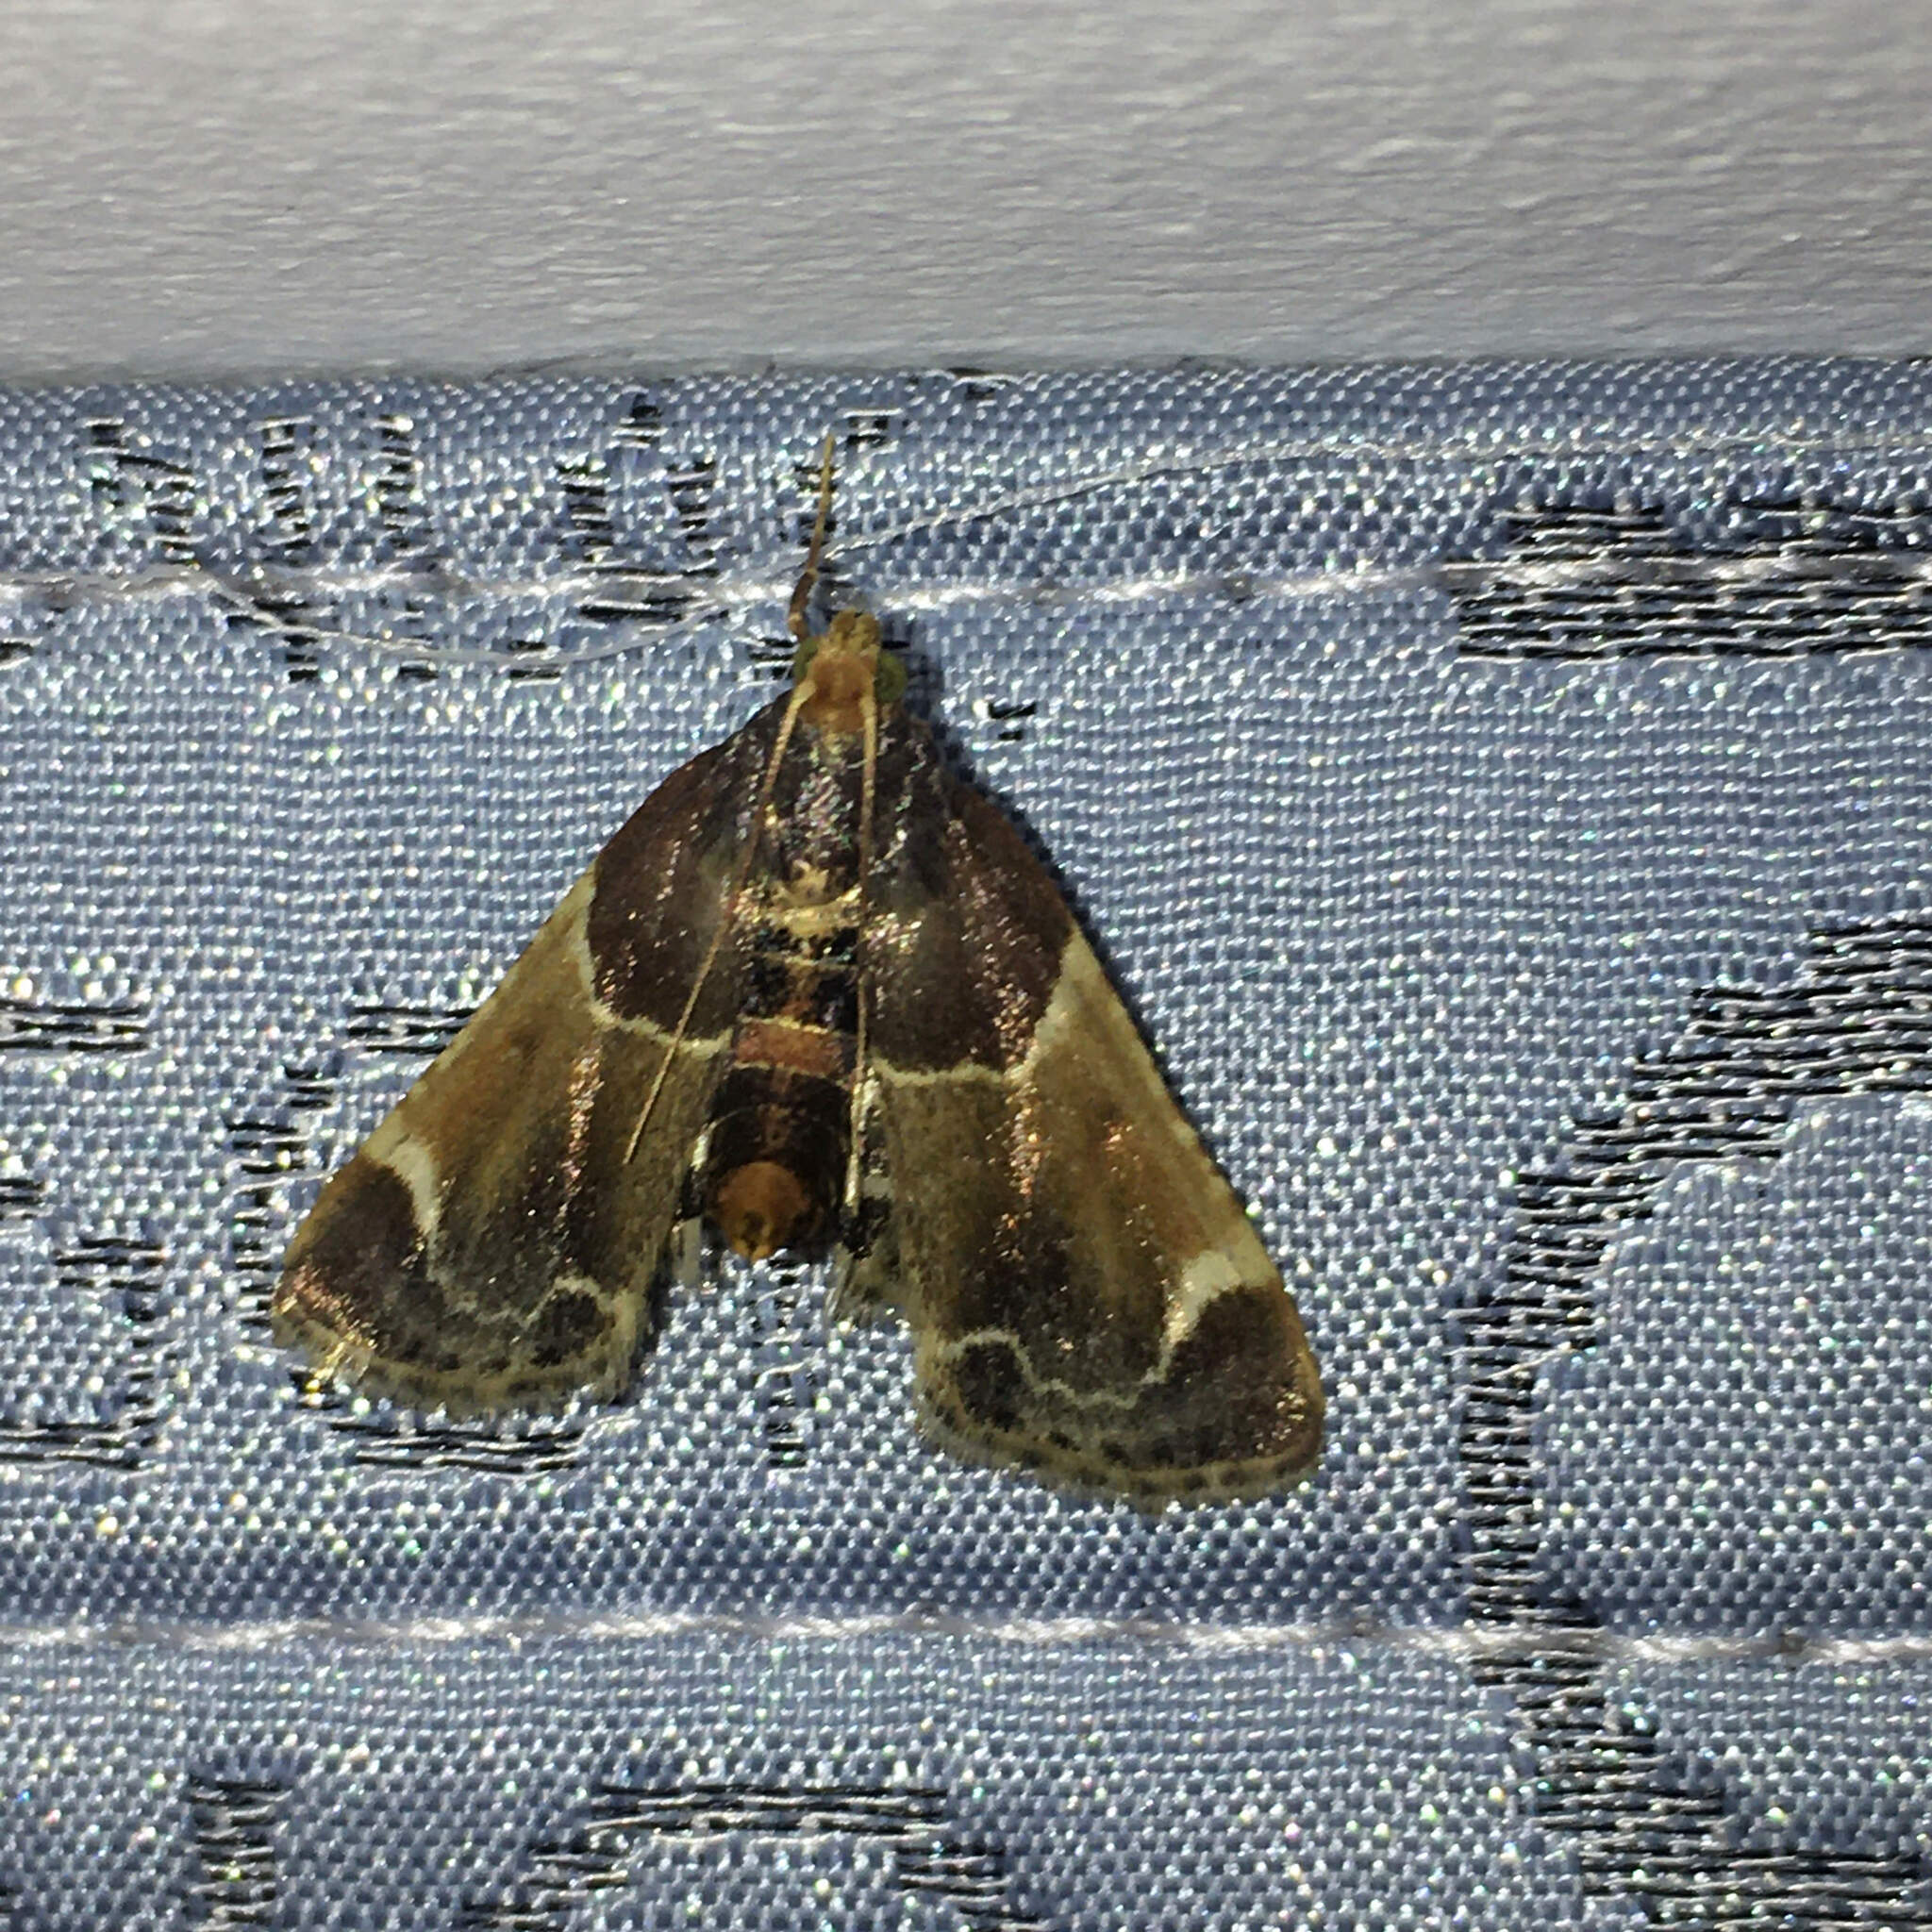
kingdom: Animalia
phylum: Arthropoda
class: Insecta
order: Lepidoptera
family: Pyralidae
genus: Pyralis
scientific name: Pyralis farinalis
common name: Meal moth
